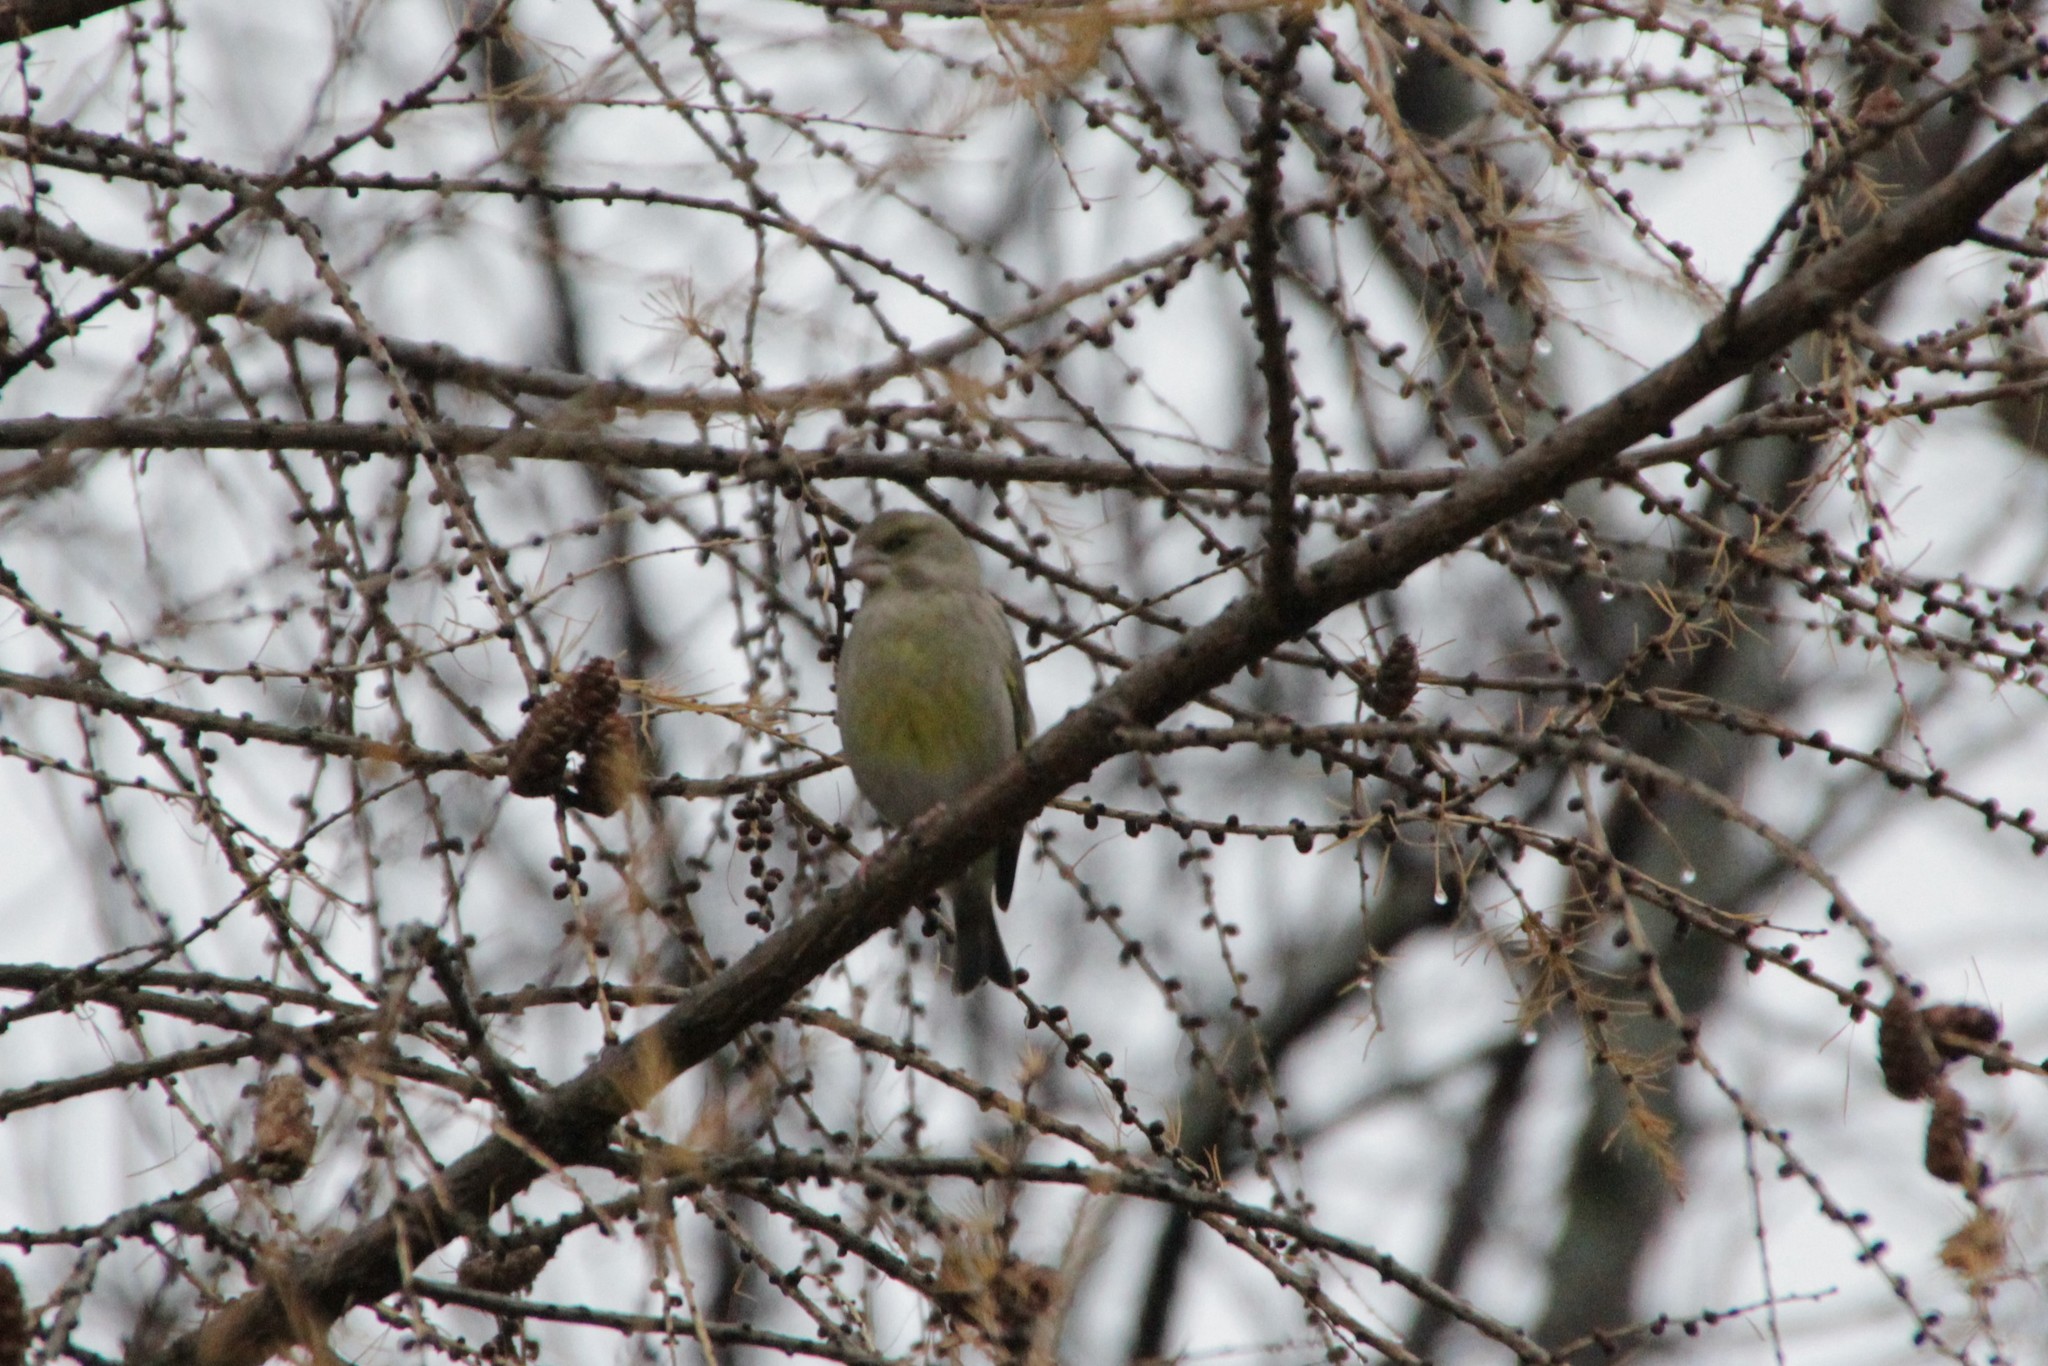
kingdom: Plantae
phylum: Tracheophyta
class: Liliopsida
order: Poales
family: Poaceae
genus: Chloris
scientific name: Chloris chloris
